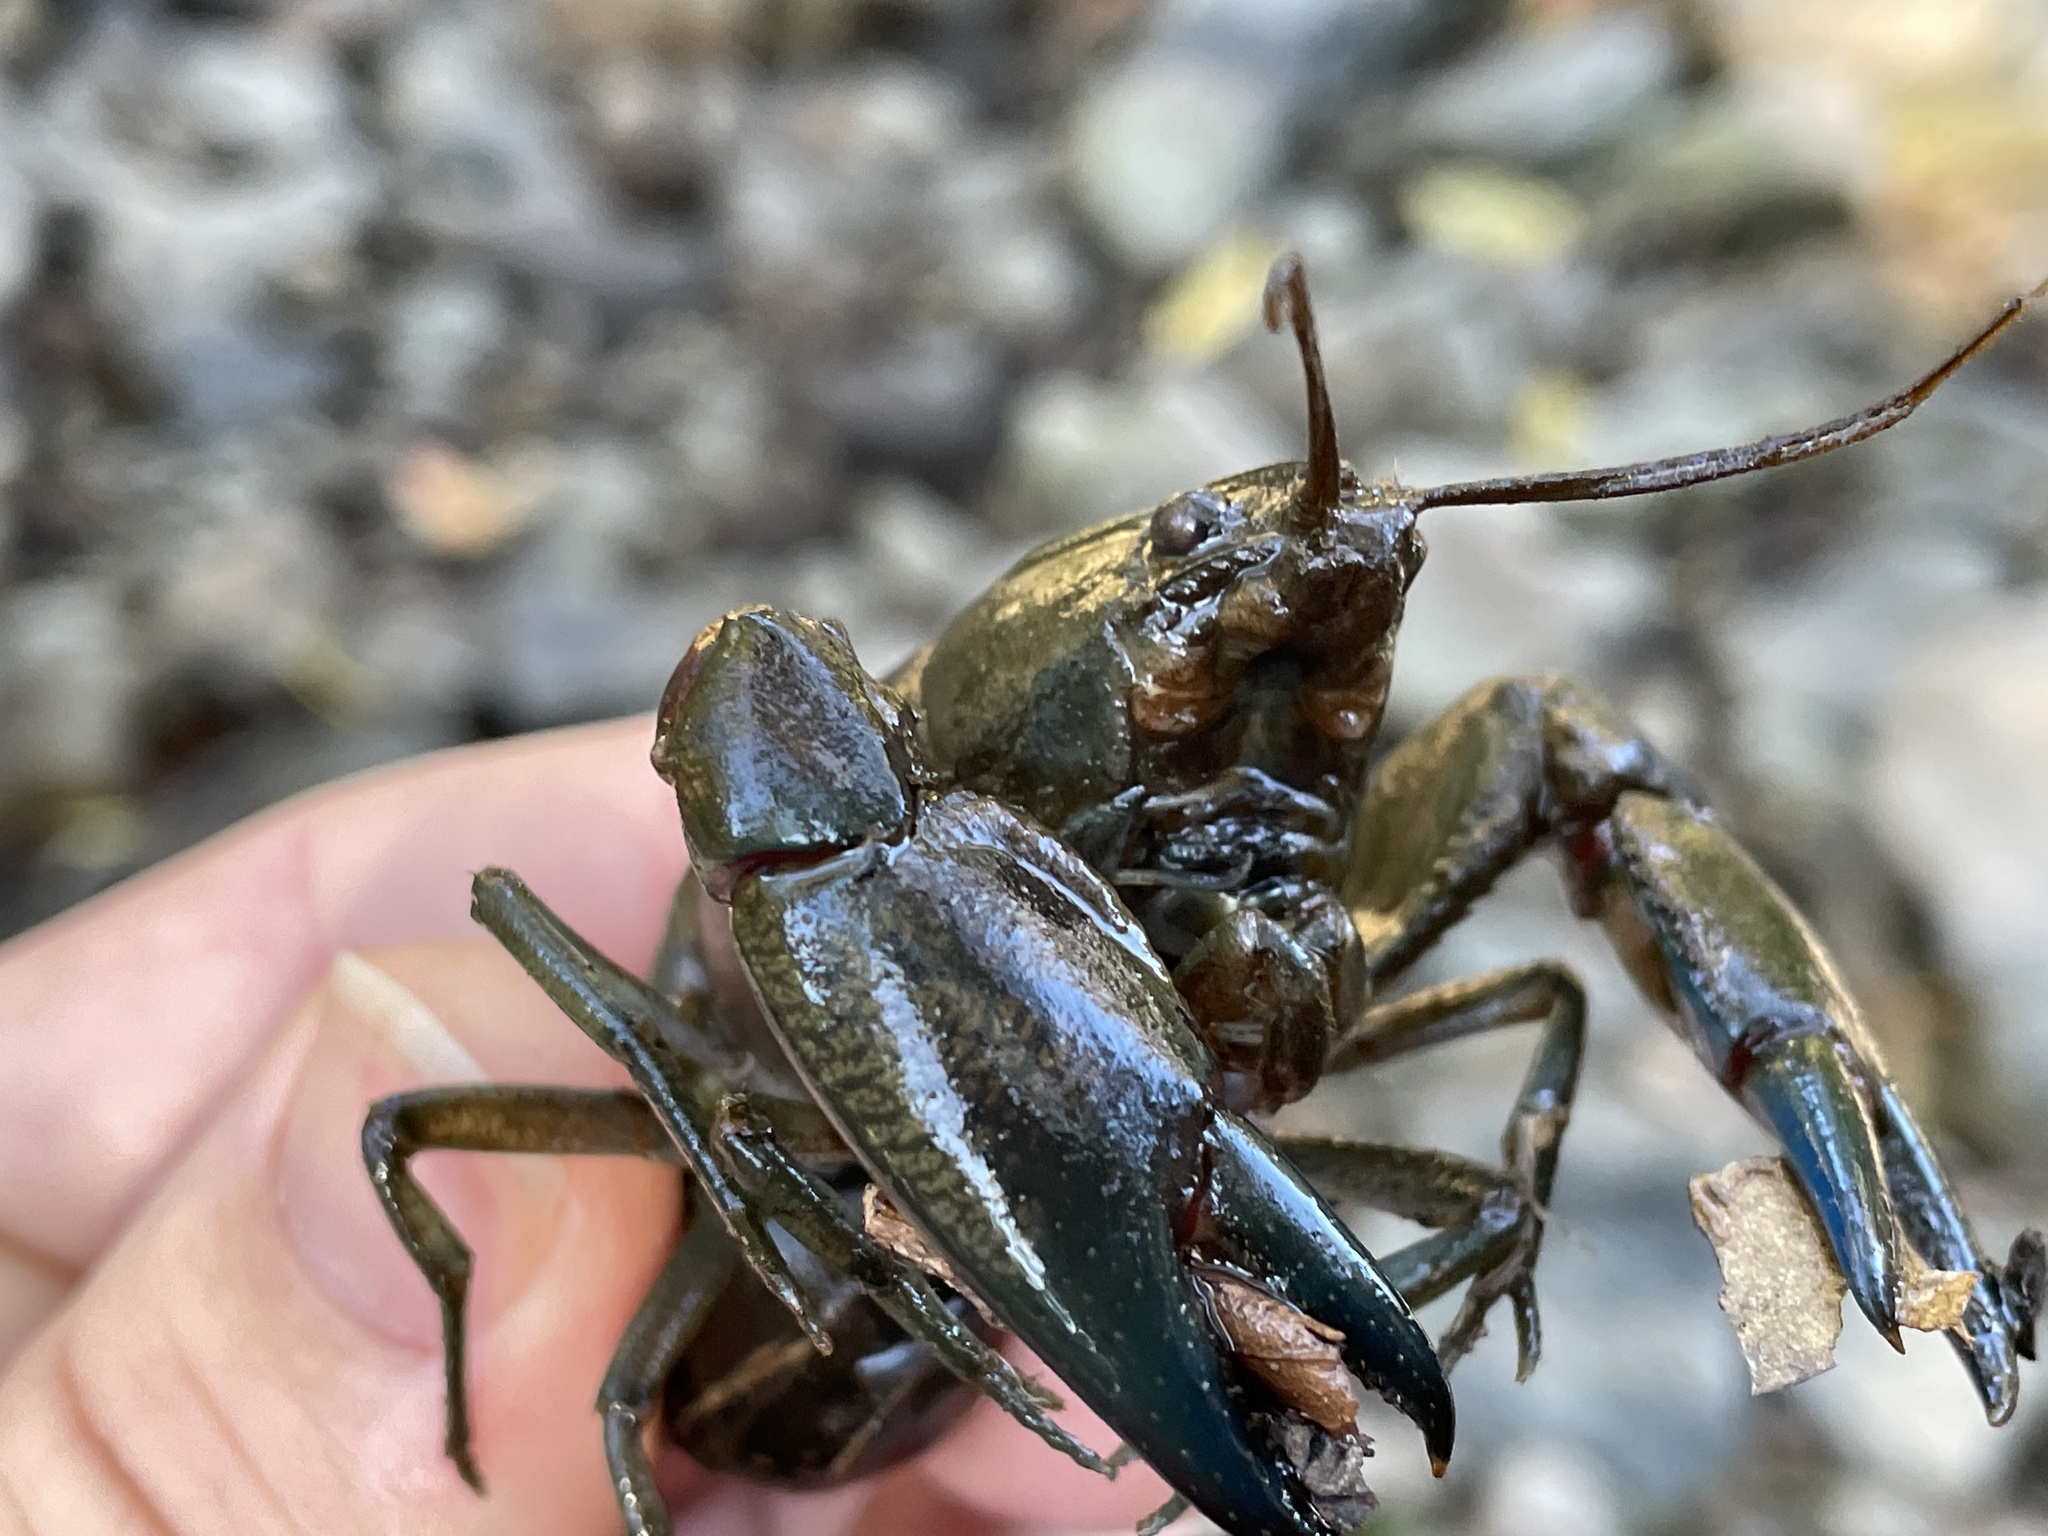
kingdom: Animalia
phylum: Arthropoda
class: Malacostraca
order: Decapoda
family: Parastacidae
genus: Cherax
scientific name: Cherax destructor
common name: Yabby
